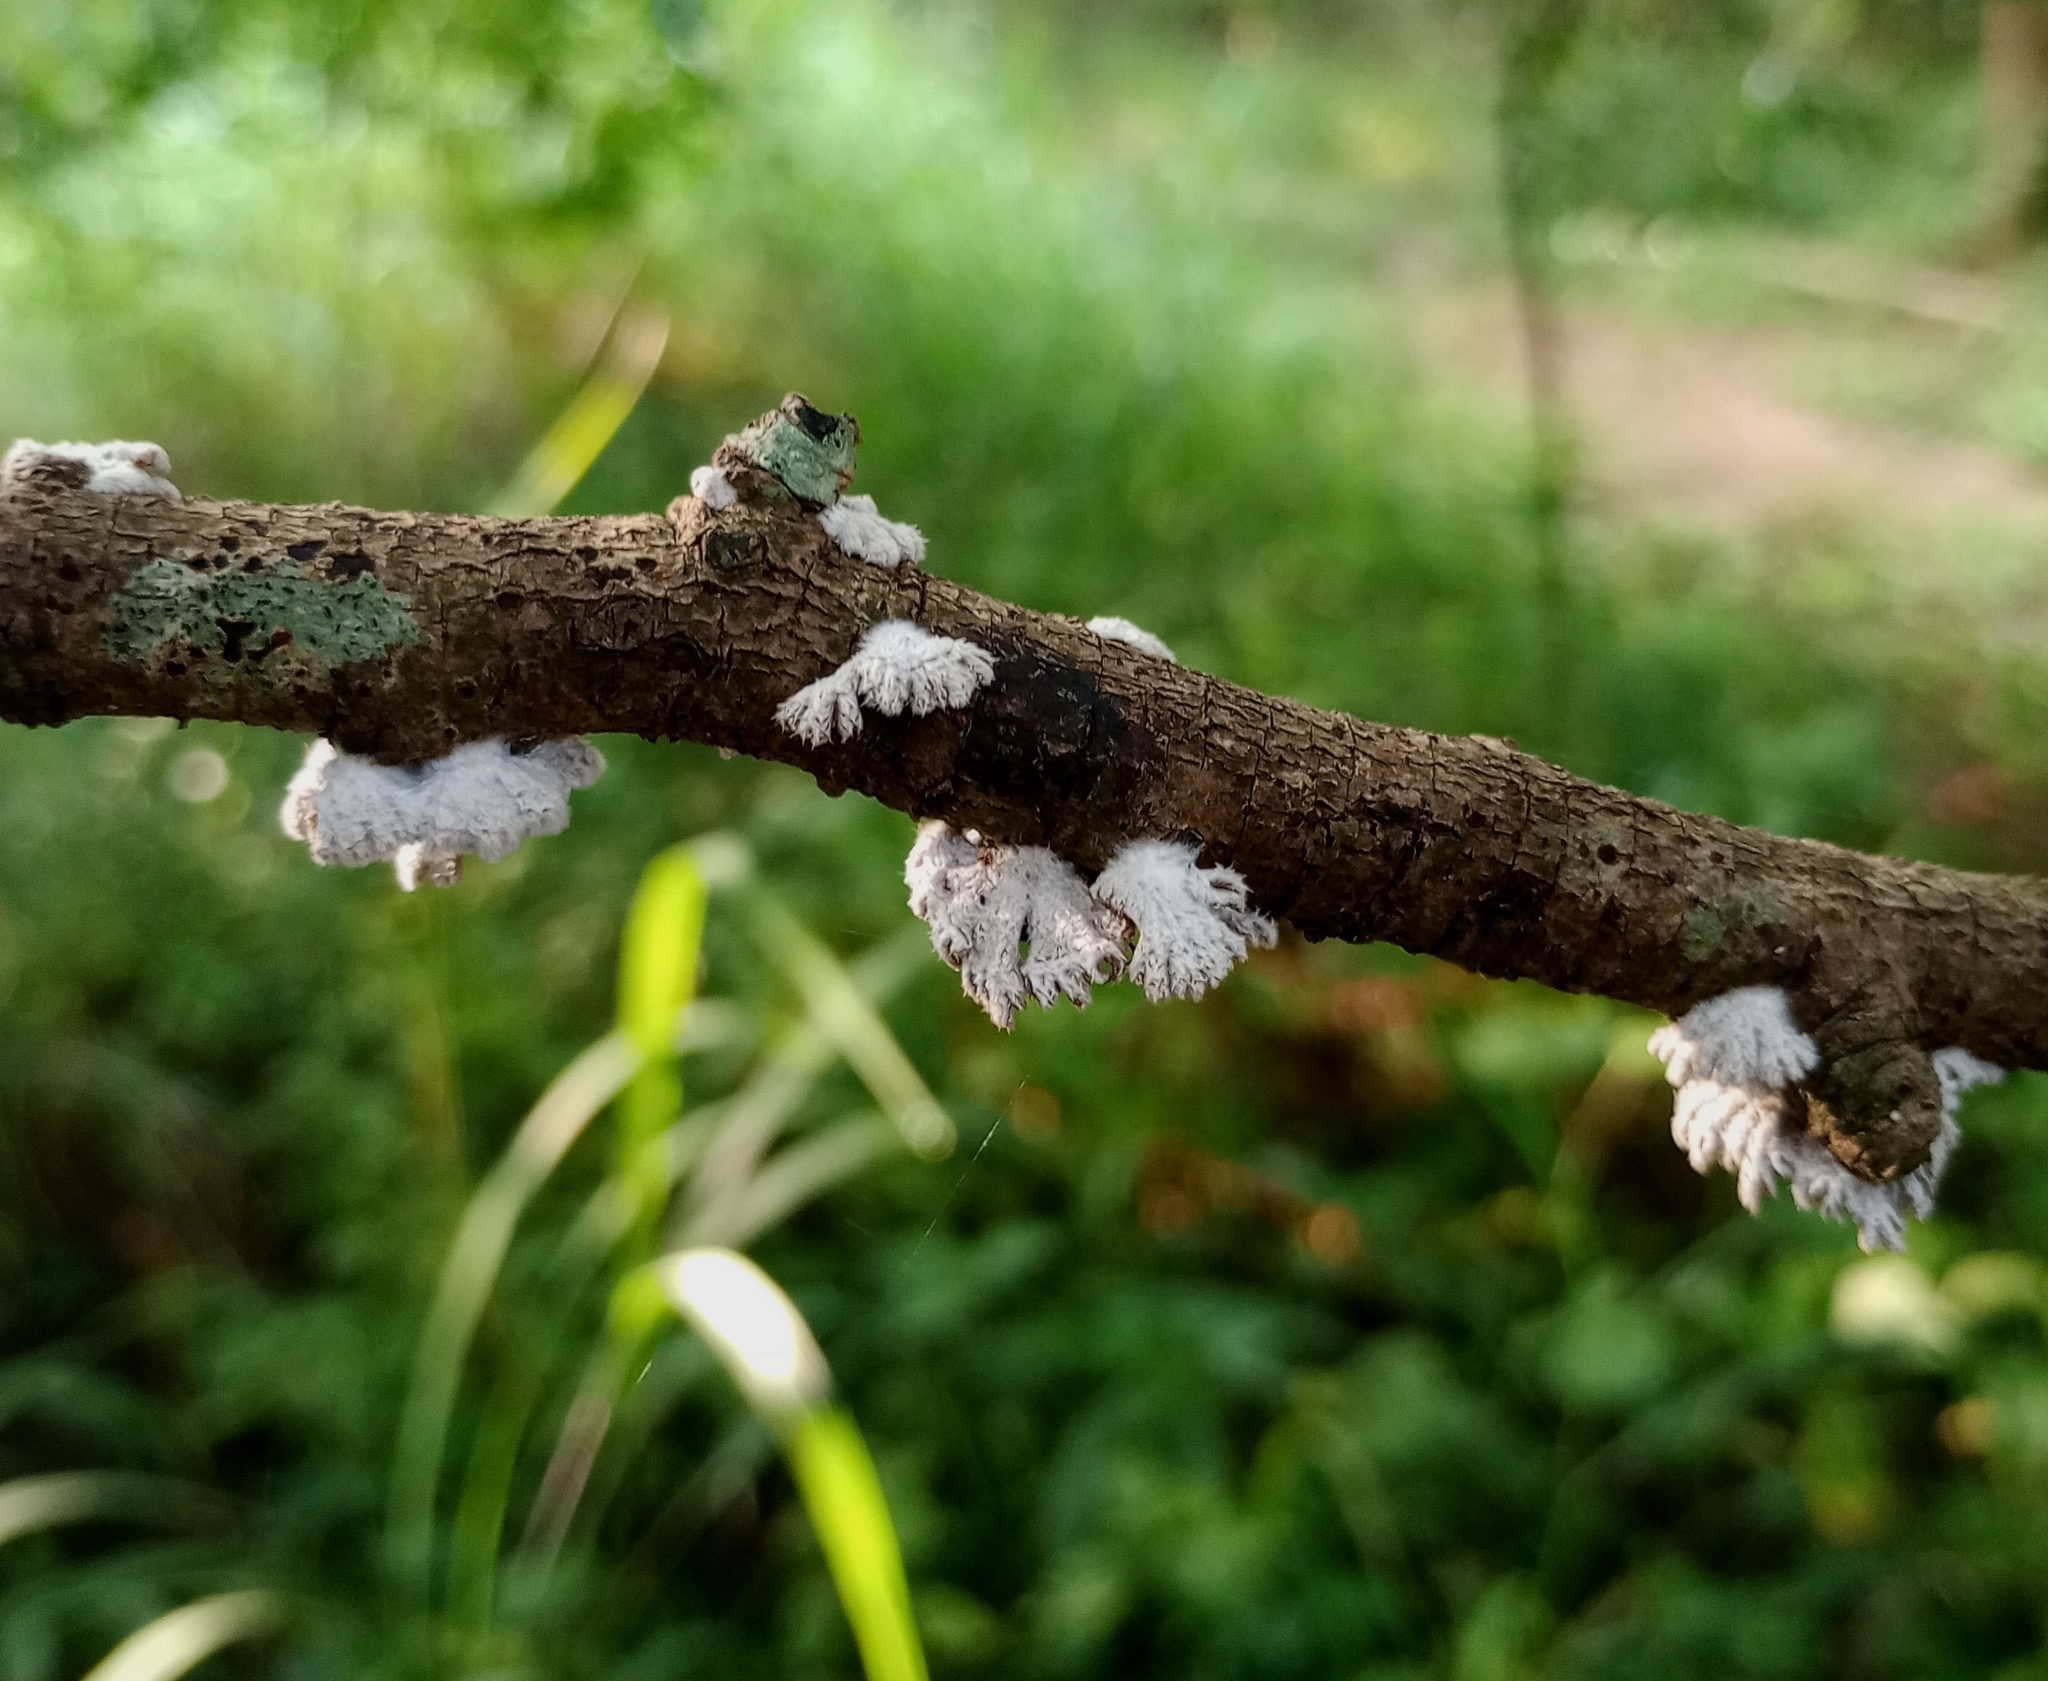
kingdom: Fungi
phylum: Basidiomycota
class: Agaricomycetes
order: Agaricales
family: Schizophyllaceae
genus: Schizophyllum
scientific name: Schizophyllum commune
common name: Common porecrust
